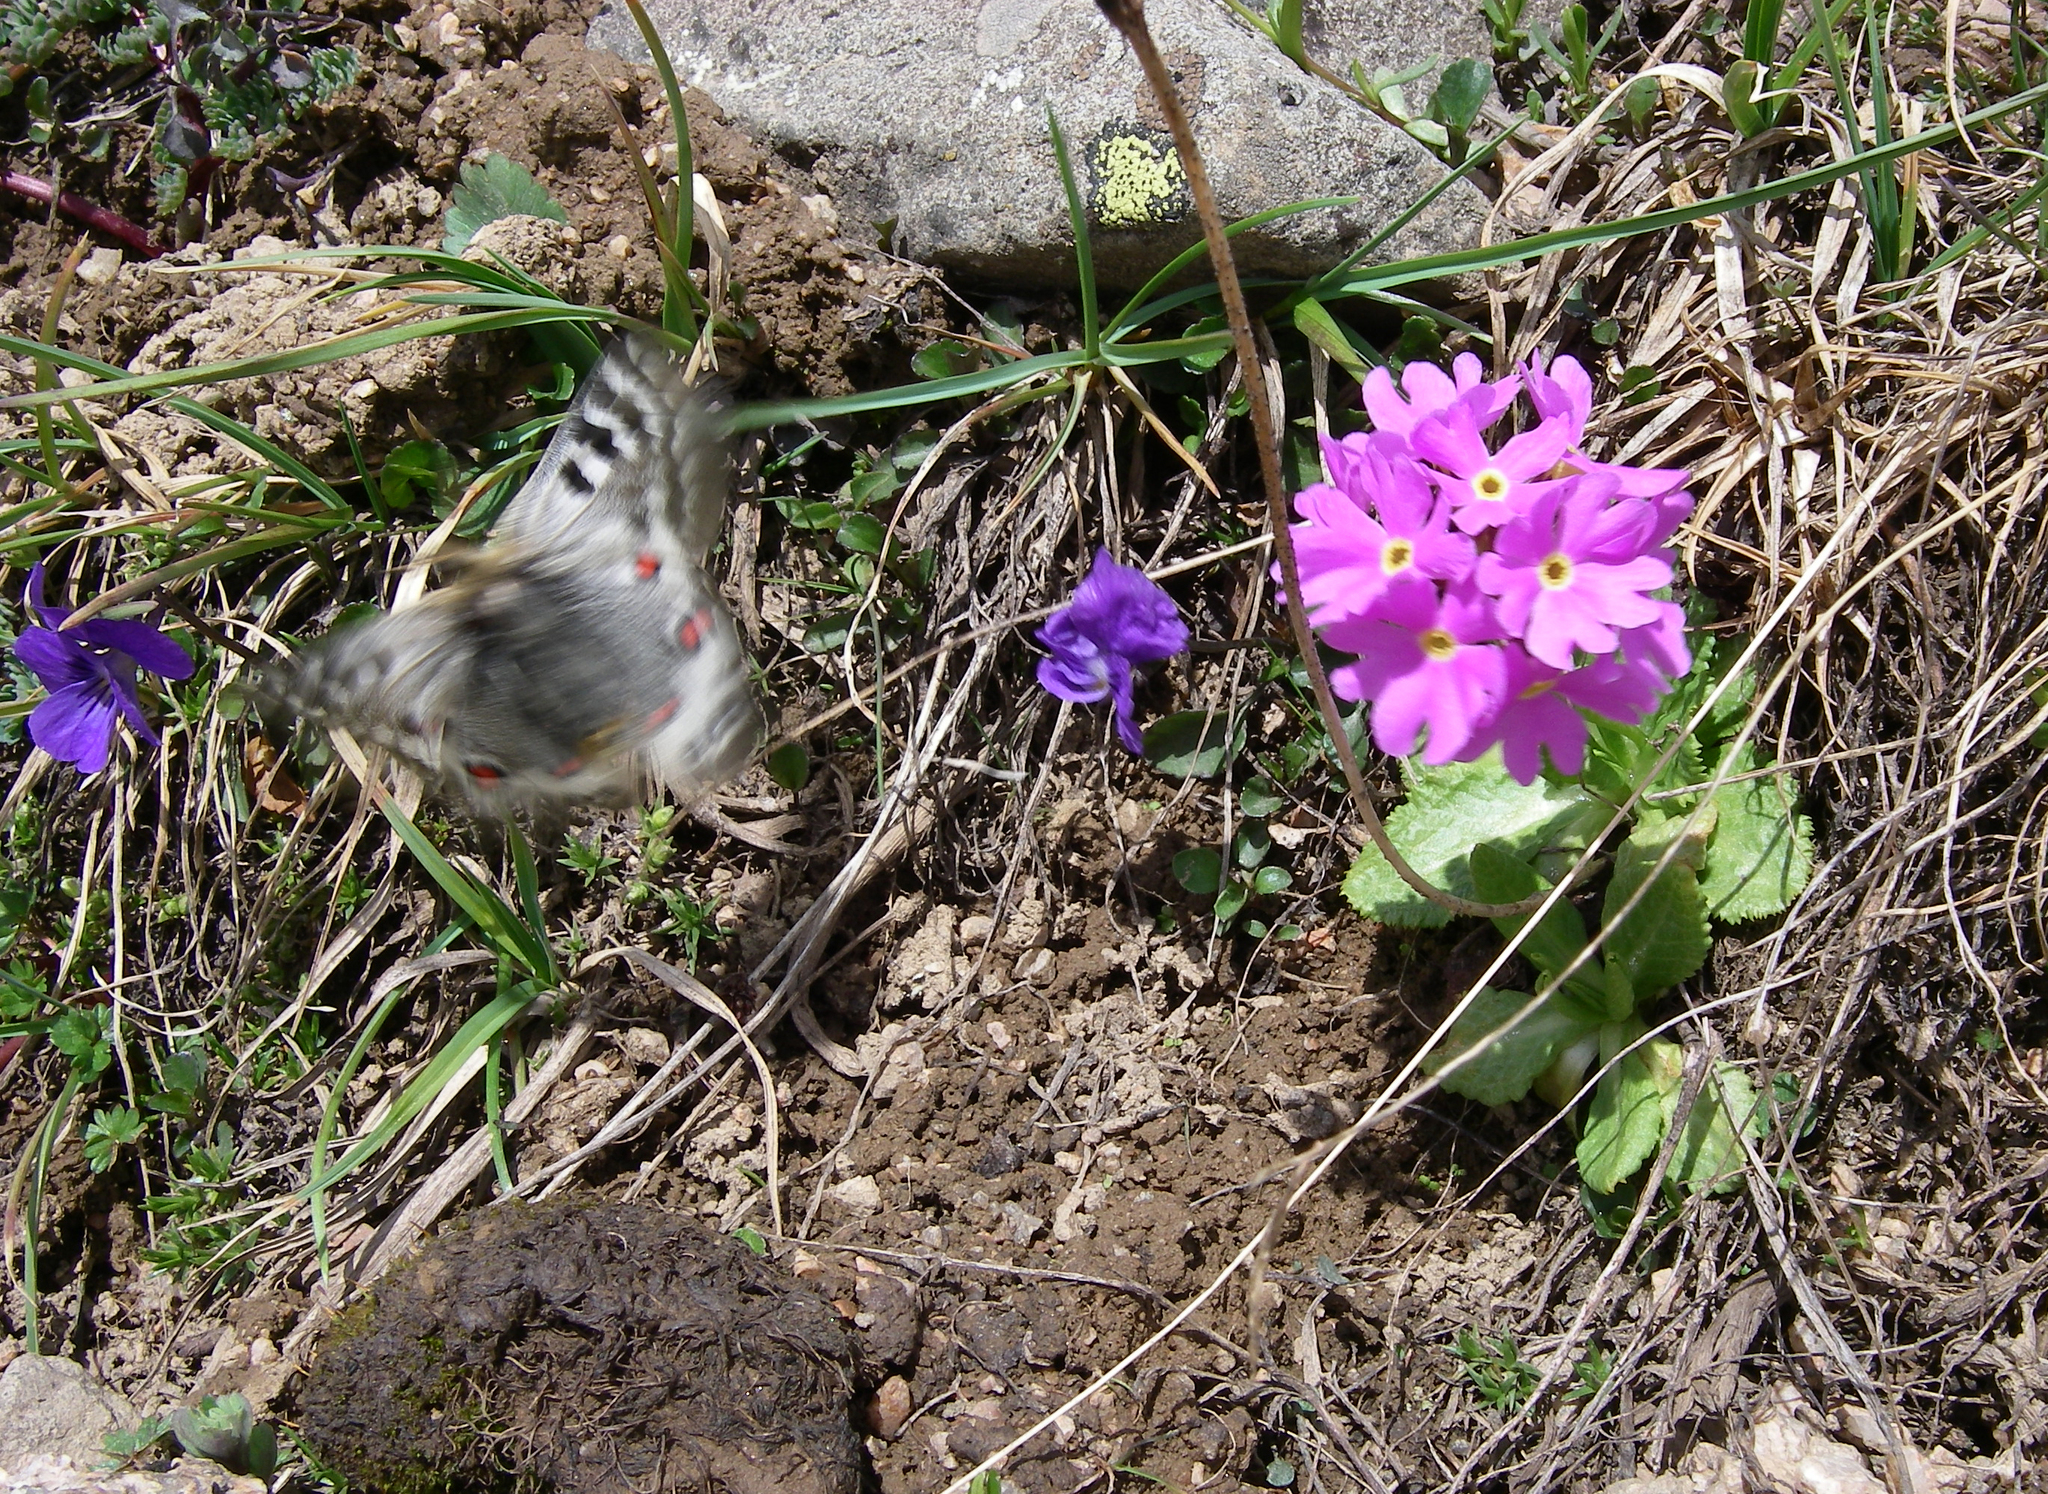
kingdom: Plantae
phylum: Tracheophyta
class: Magnoliopsida
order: Ericales
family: Primulaceae
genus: Primula
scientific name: Primula algida
